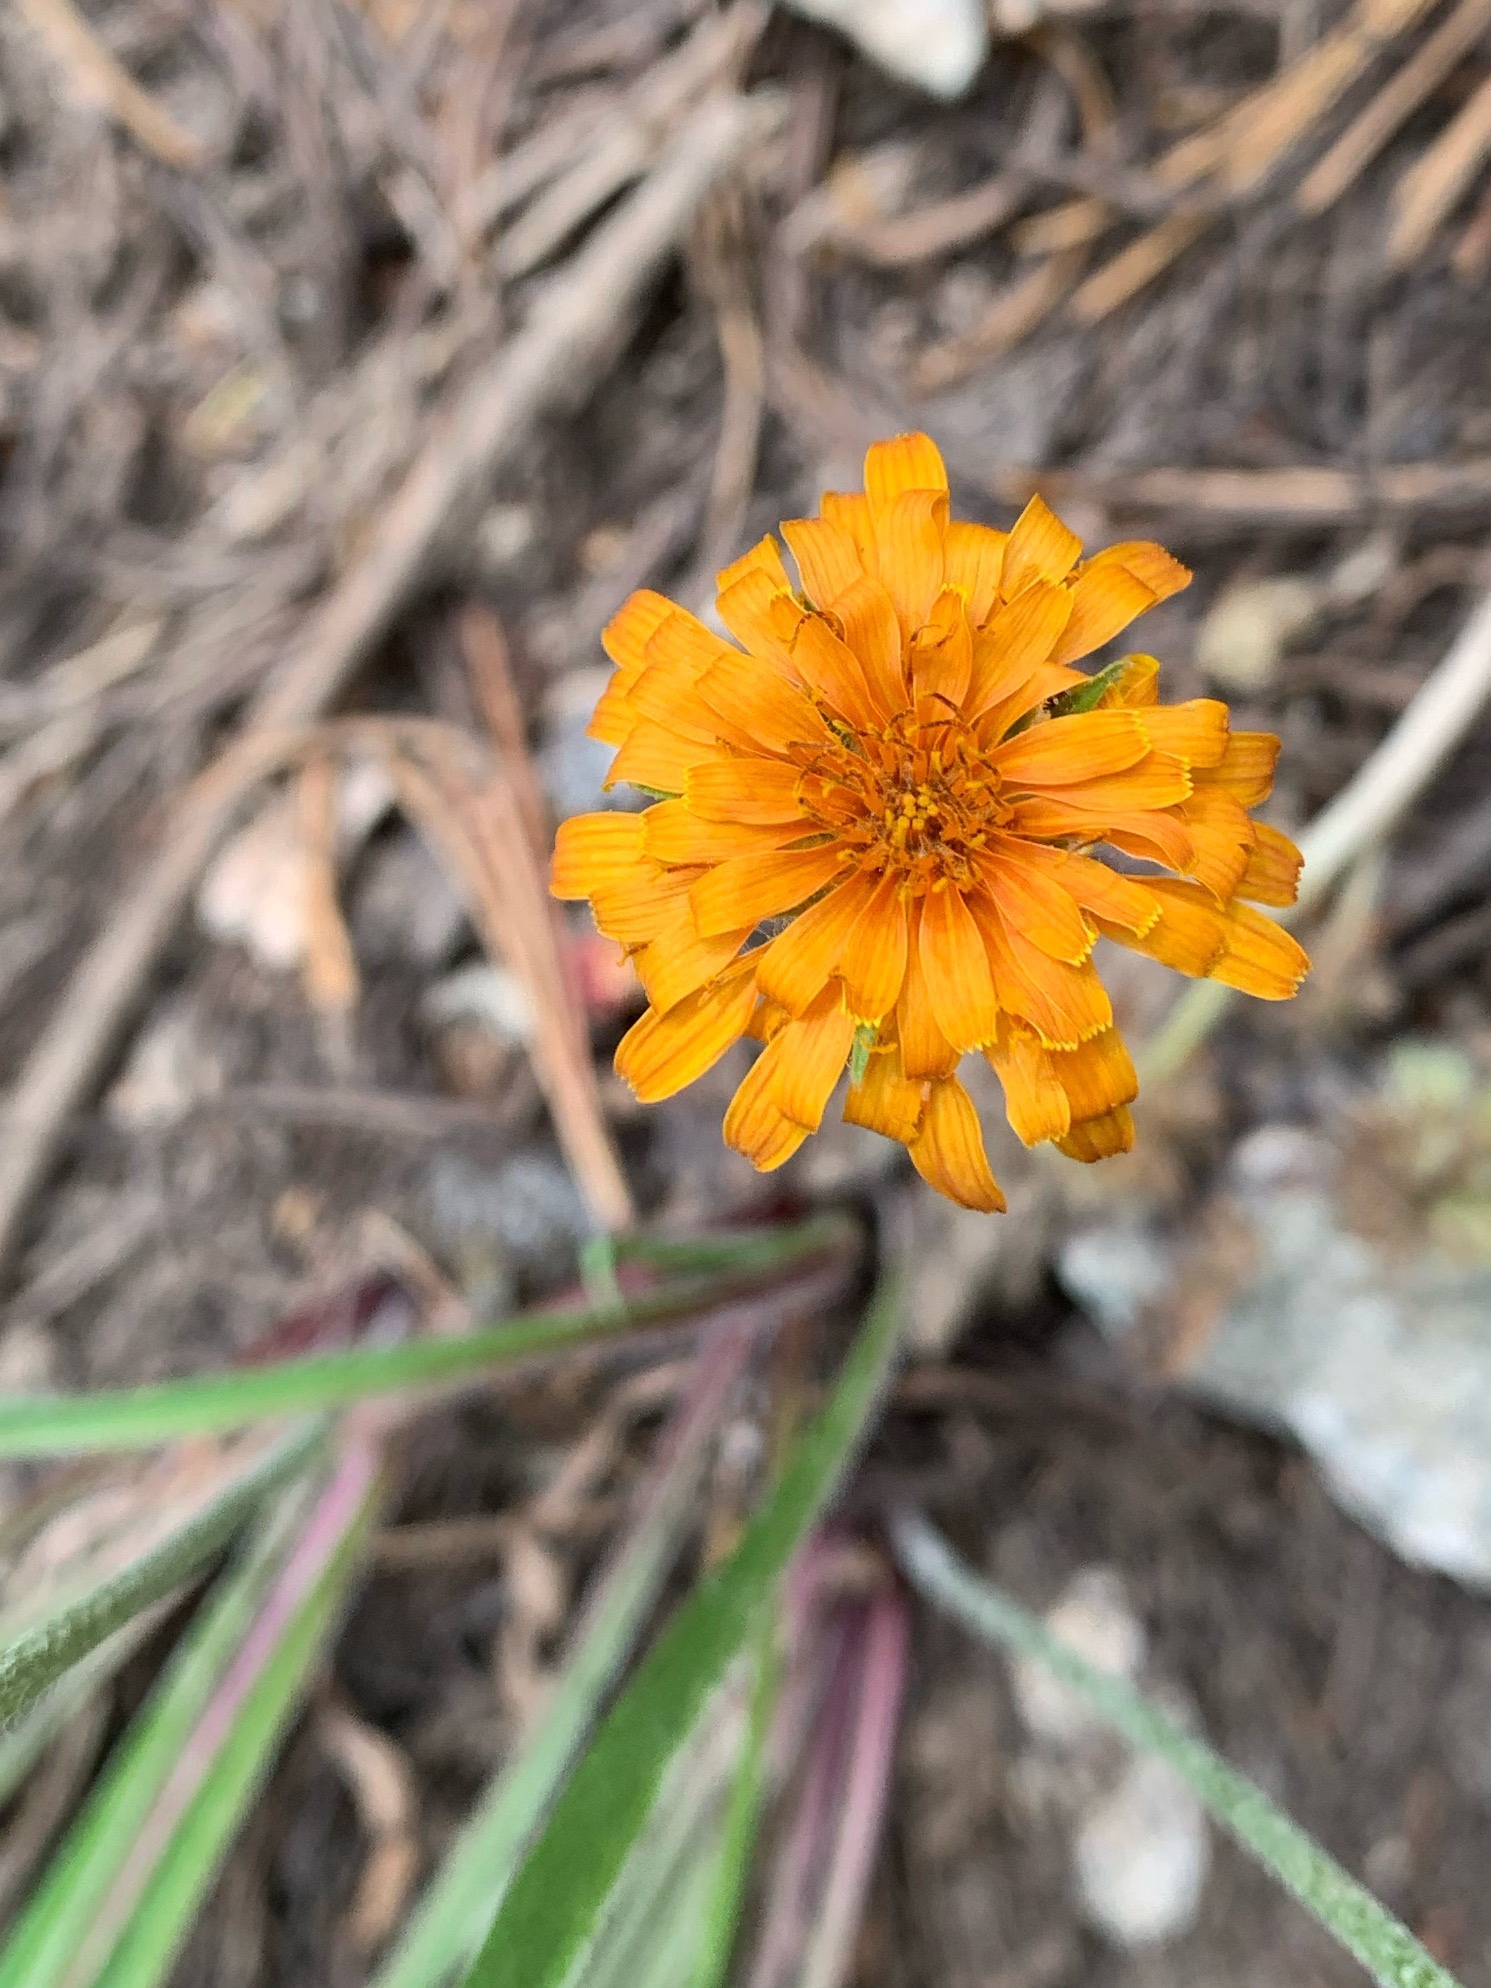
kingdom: Plantae
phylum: Tracheophyta
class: Magnoliopsida
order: Asterales
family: Asteraceae
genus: Agoseris
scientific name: Agoseris aurantiaca
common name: Mountain agoseris
